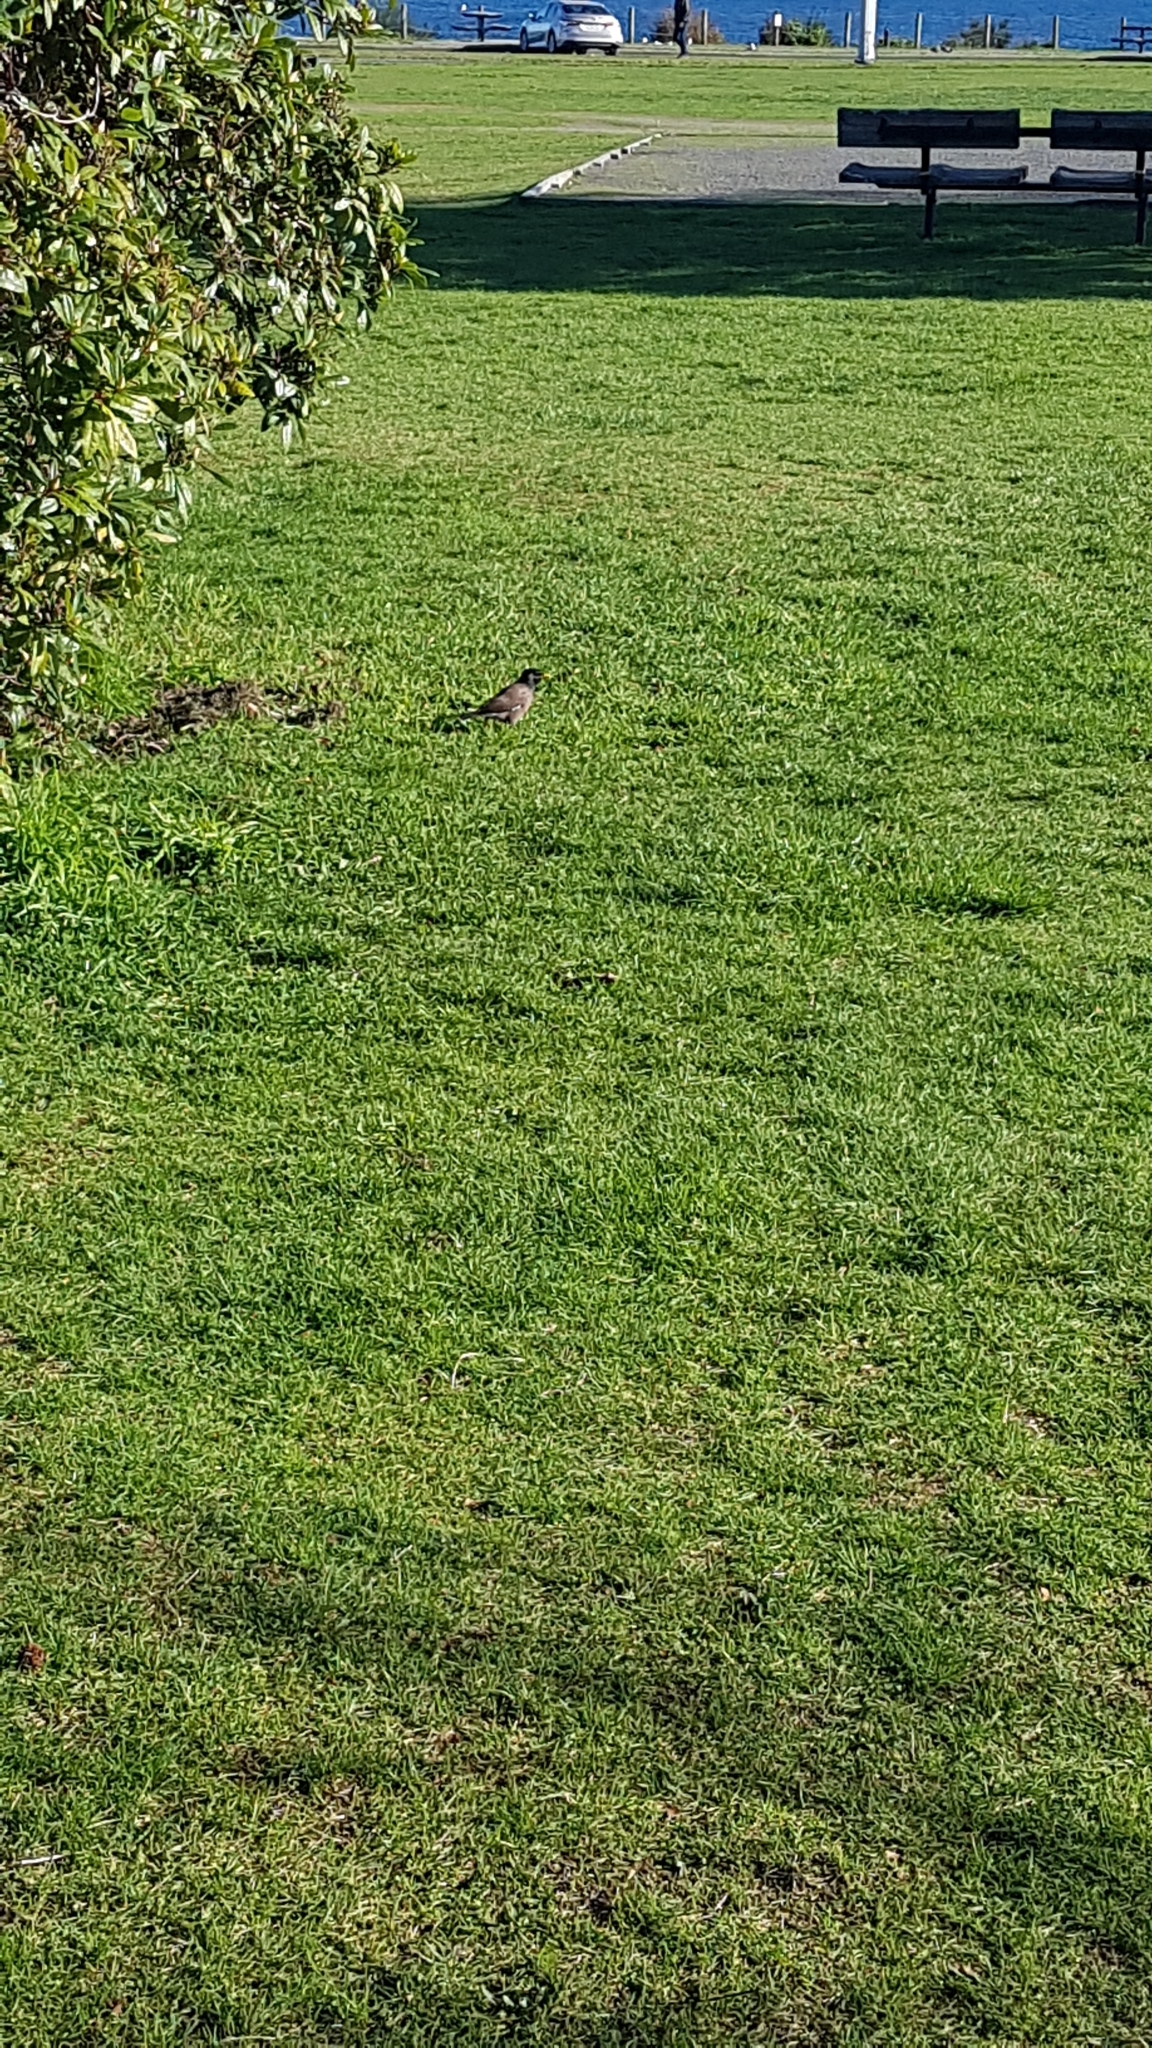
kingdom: Animalia
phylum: Chordata
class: Aves
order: Passeriformes
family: Sturnidae
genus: Acridotheres
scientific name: Acridotheres tristis
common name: Common myna
